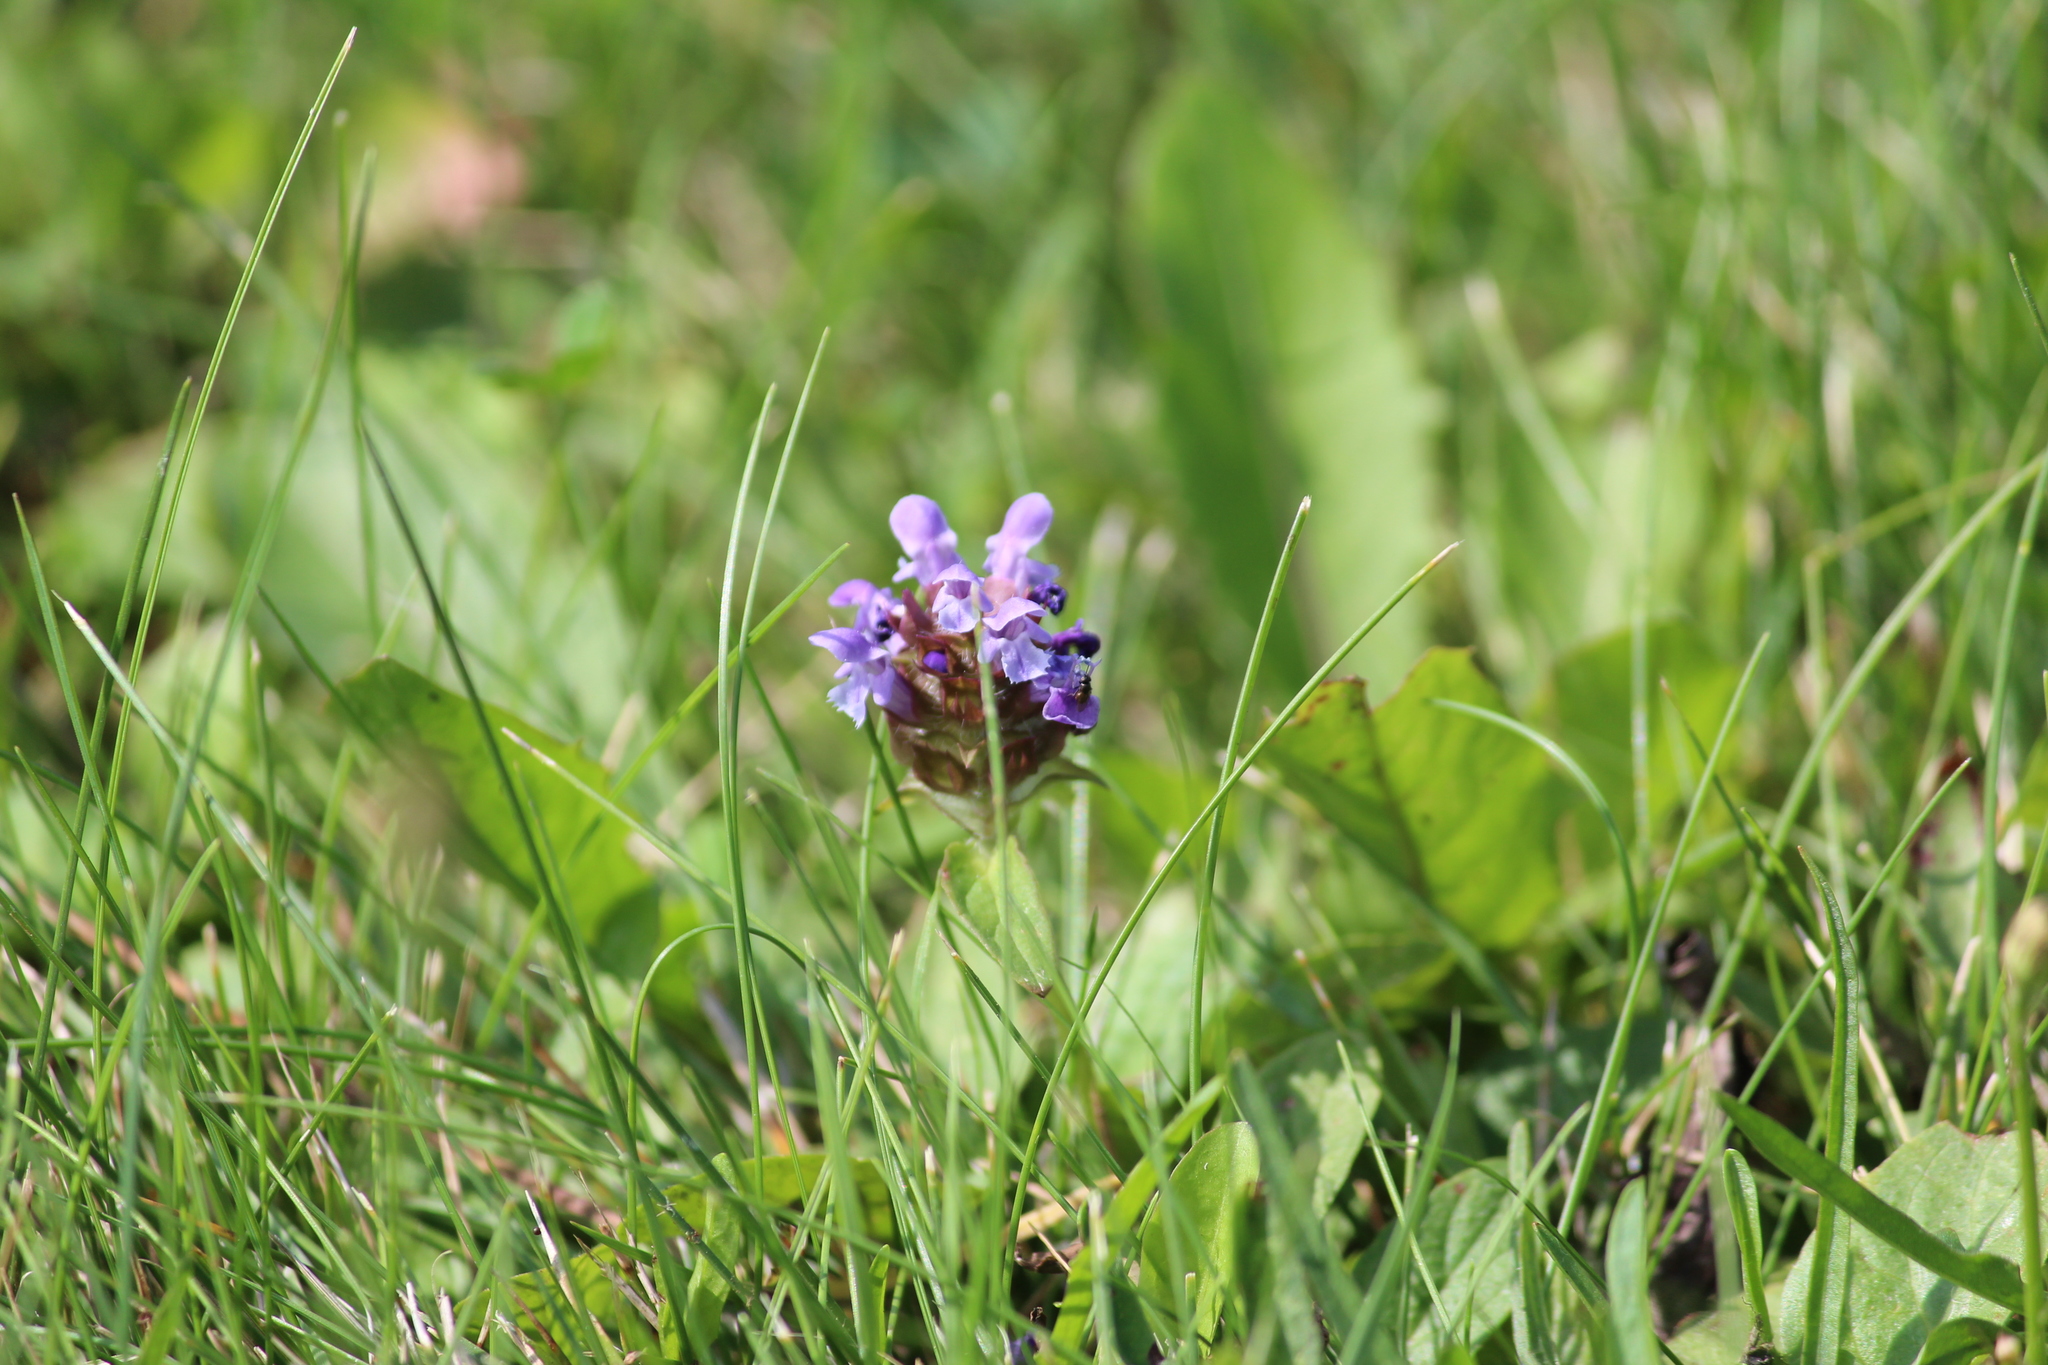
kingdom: Plantae
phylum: Tracheophyta
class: Magnoliopsida
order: Lamiales
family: Lamiaceae
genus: Prunella
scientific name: Prunella vulgaris
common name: Heal-all
